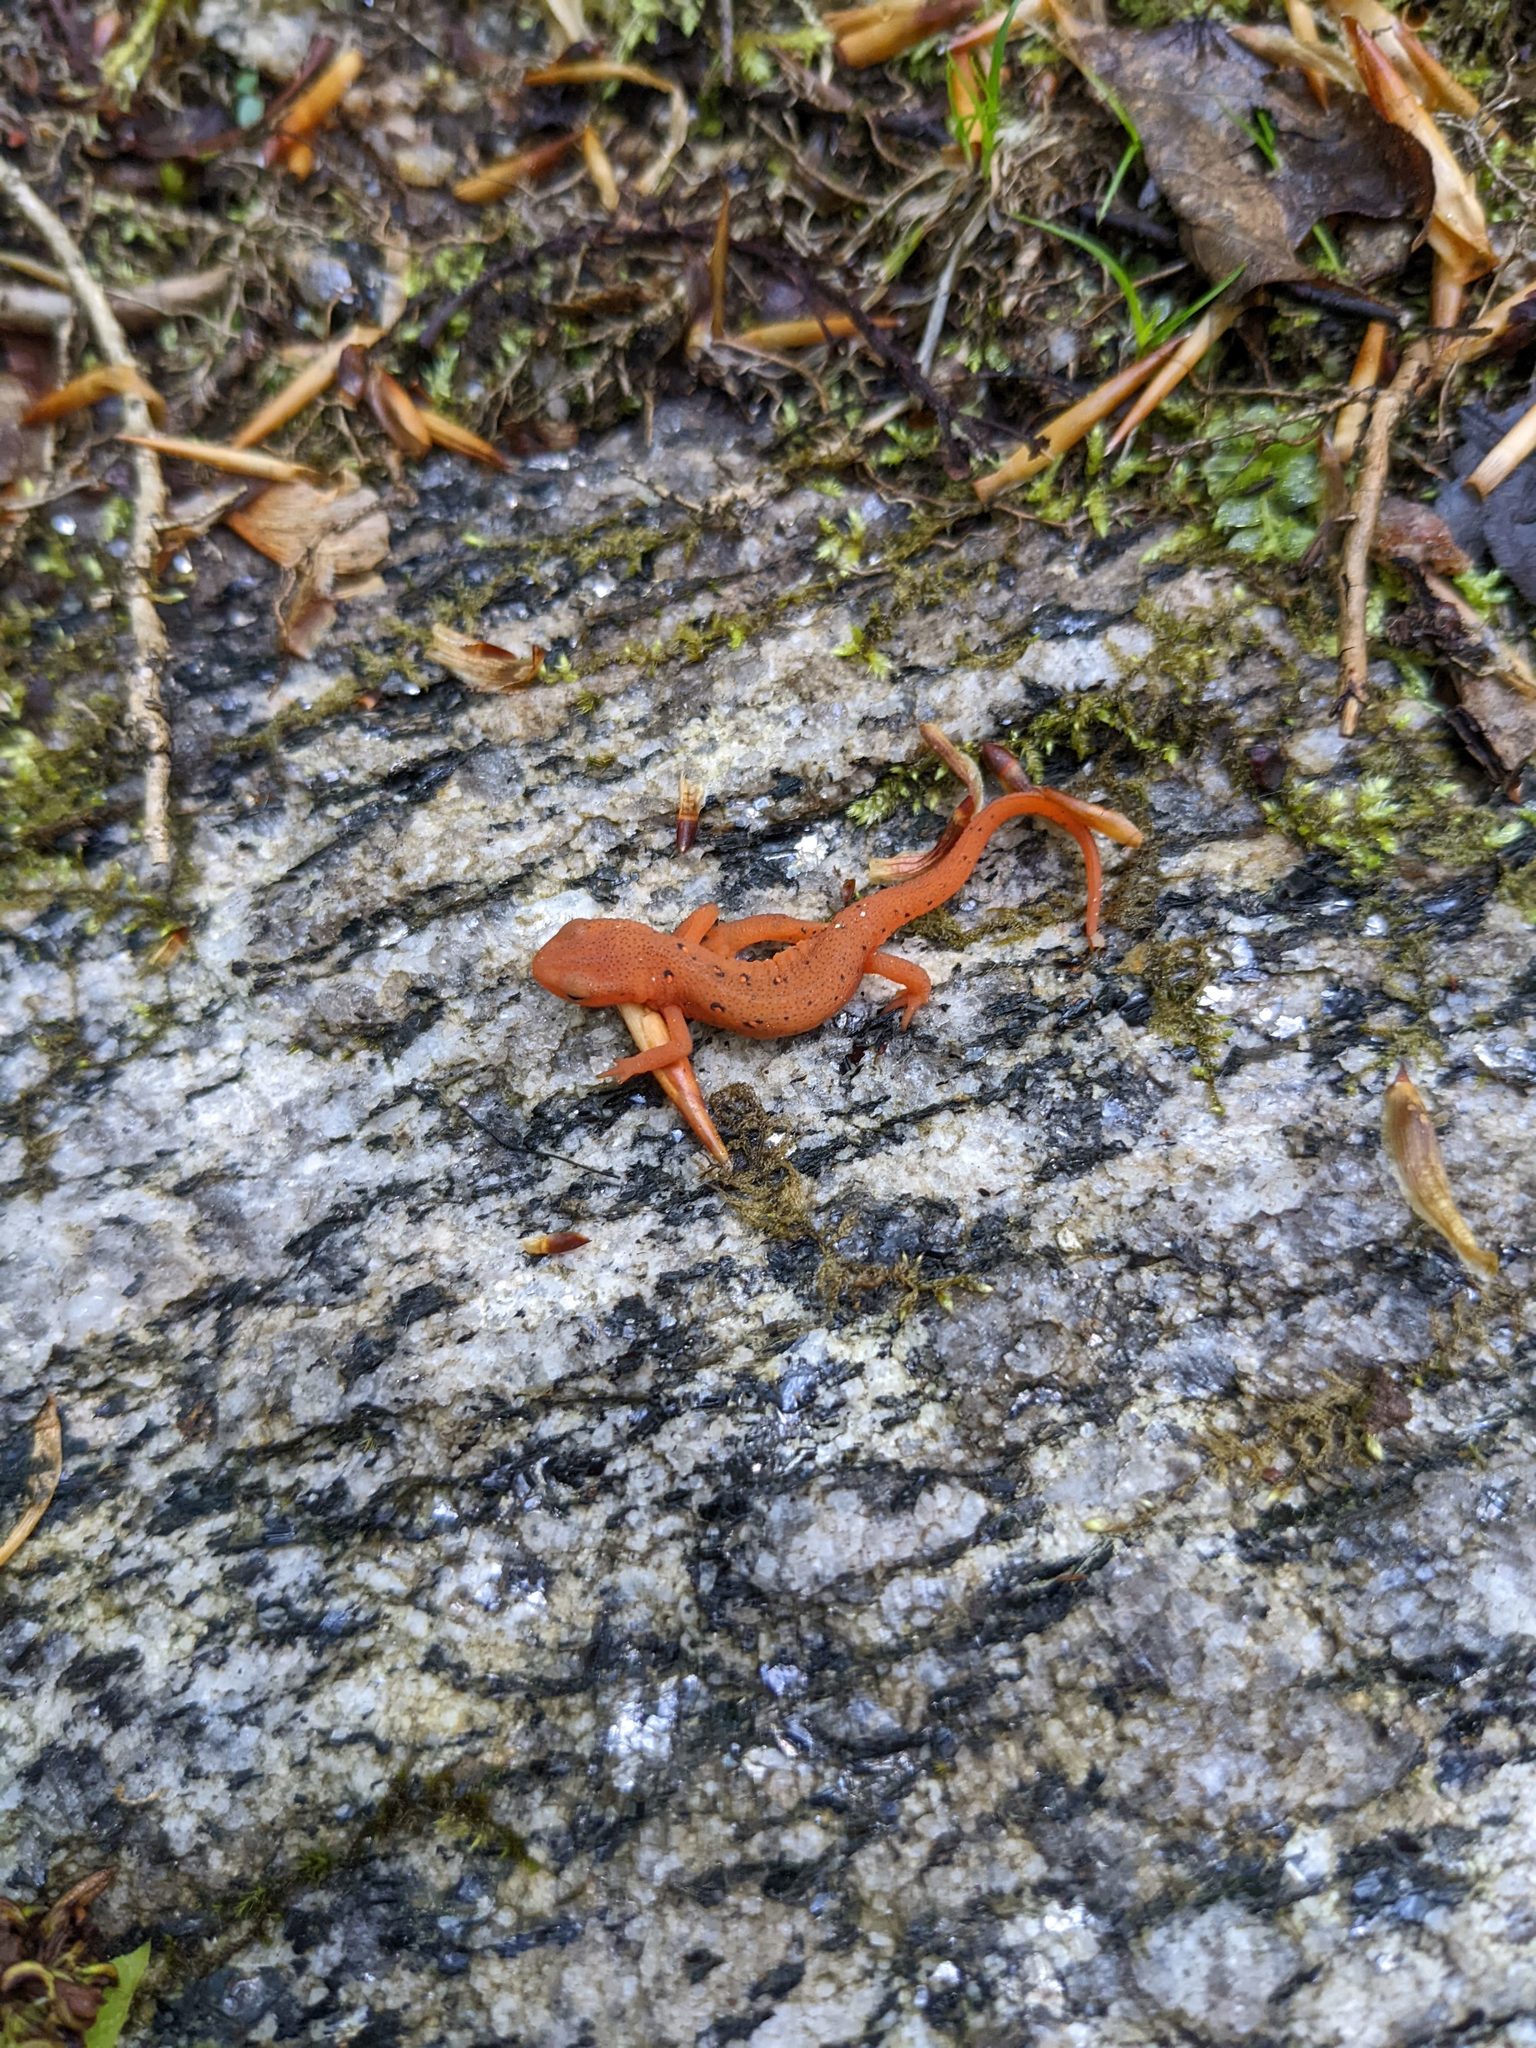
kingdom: Animalia
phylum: Chordata
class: Amphibia
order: Caudata
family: Salamandridae
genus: Notophthalmus
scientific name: Notophthalmus viridescens
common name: Eastern newt
